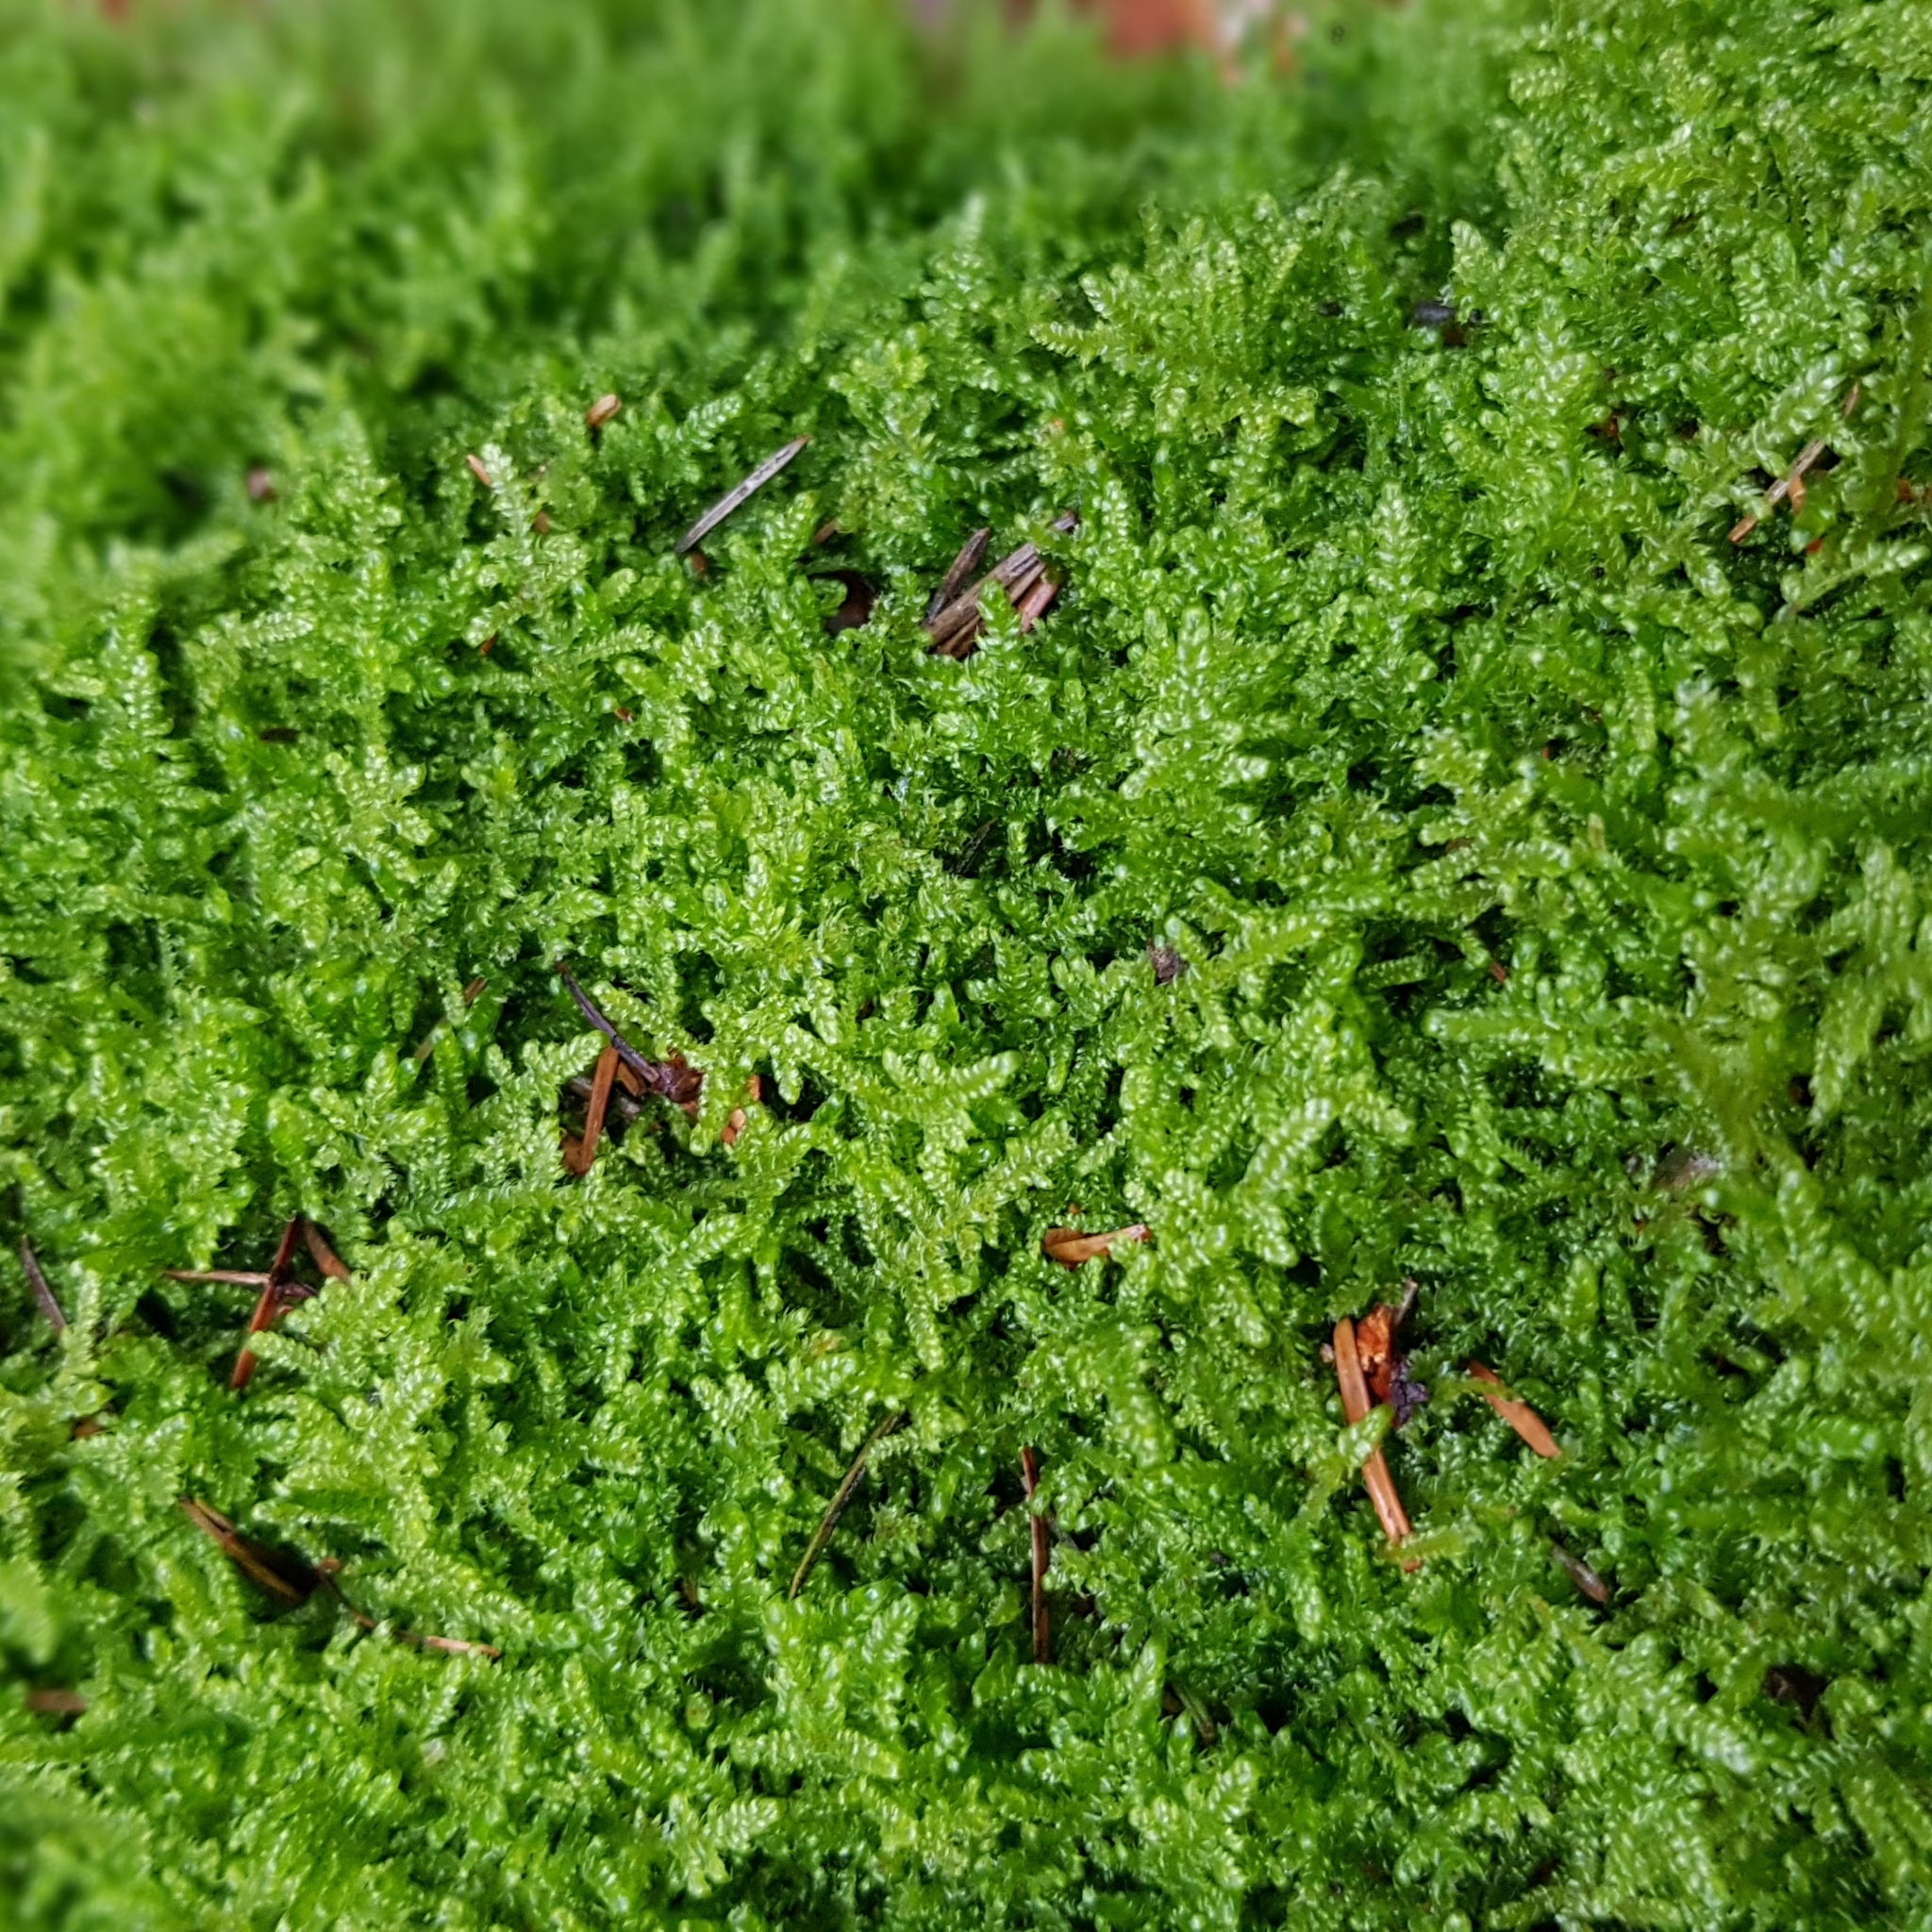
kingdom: Plantae
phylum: Bryophyta
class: Bryopsida
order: Hypnales
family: Hypnaceae
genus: Hypnum
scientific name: Hypnum jutlandicum
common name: Heath plait-moss
